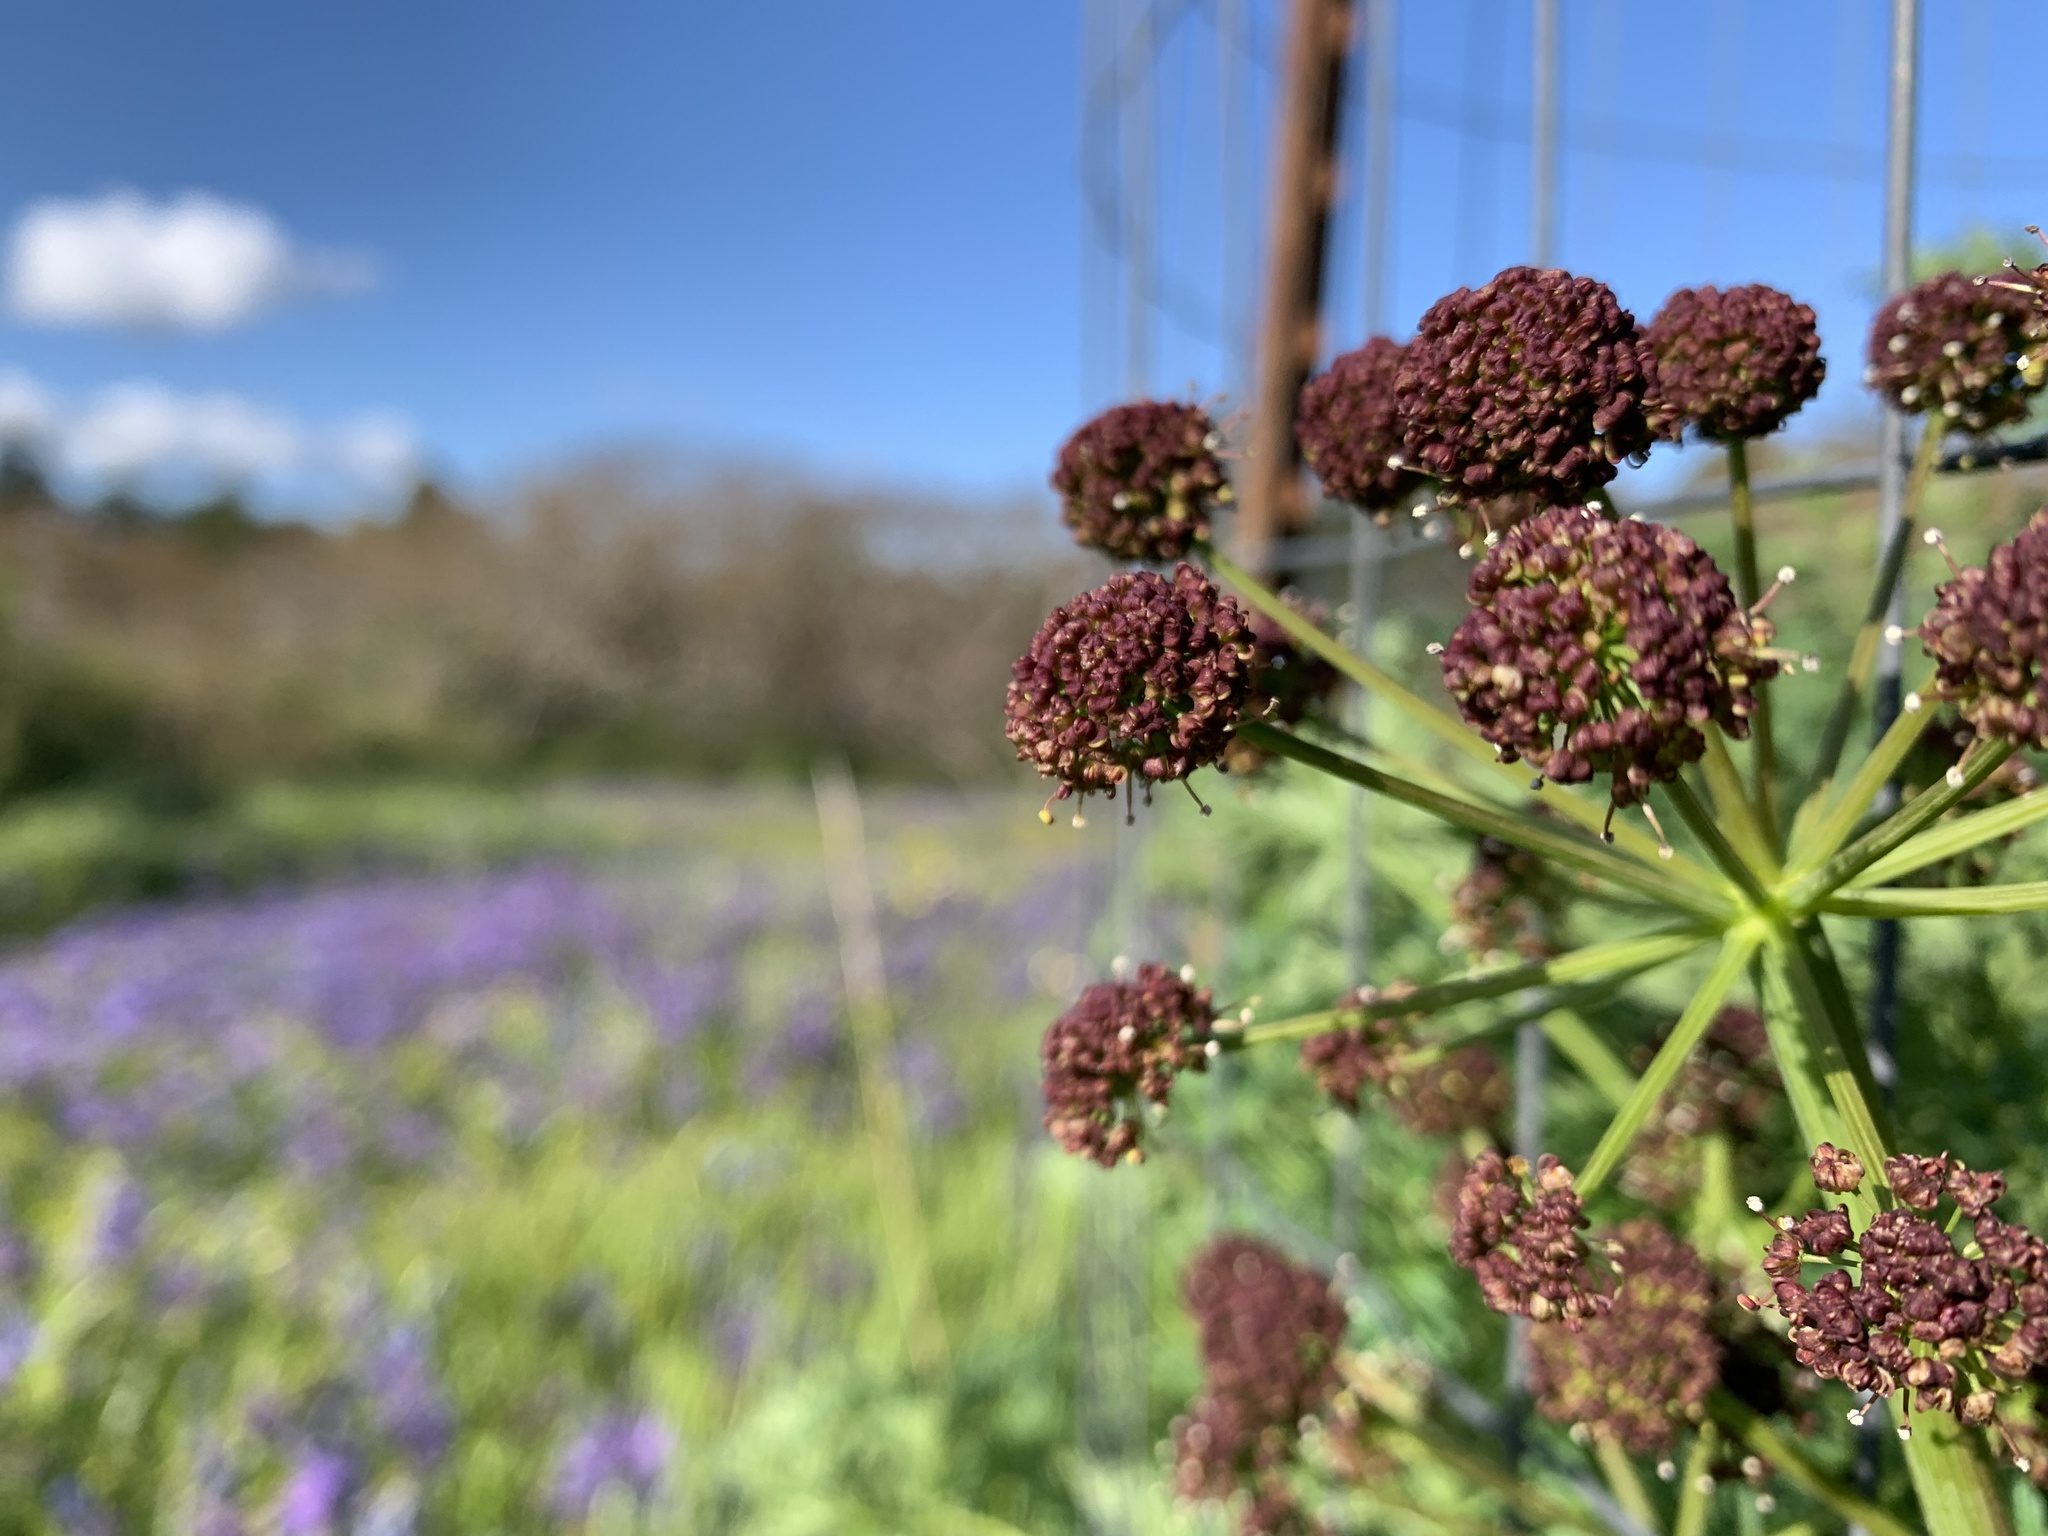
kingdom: Plantae
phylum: Tracheophyta
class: Magnoliopsida
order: Apiales
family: Apiaceae
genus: Lomatium
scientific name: Lomatium dissectum
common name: Lomatium
